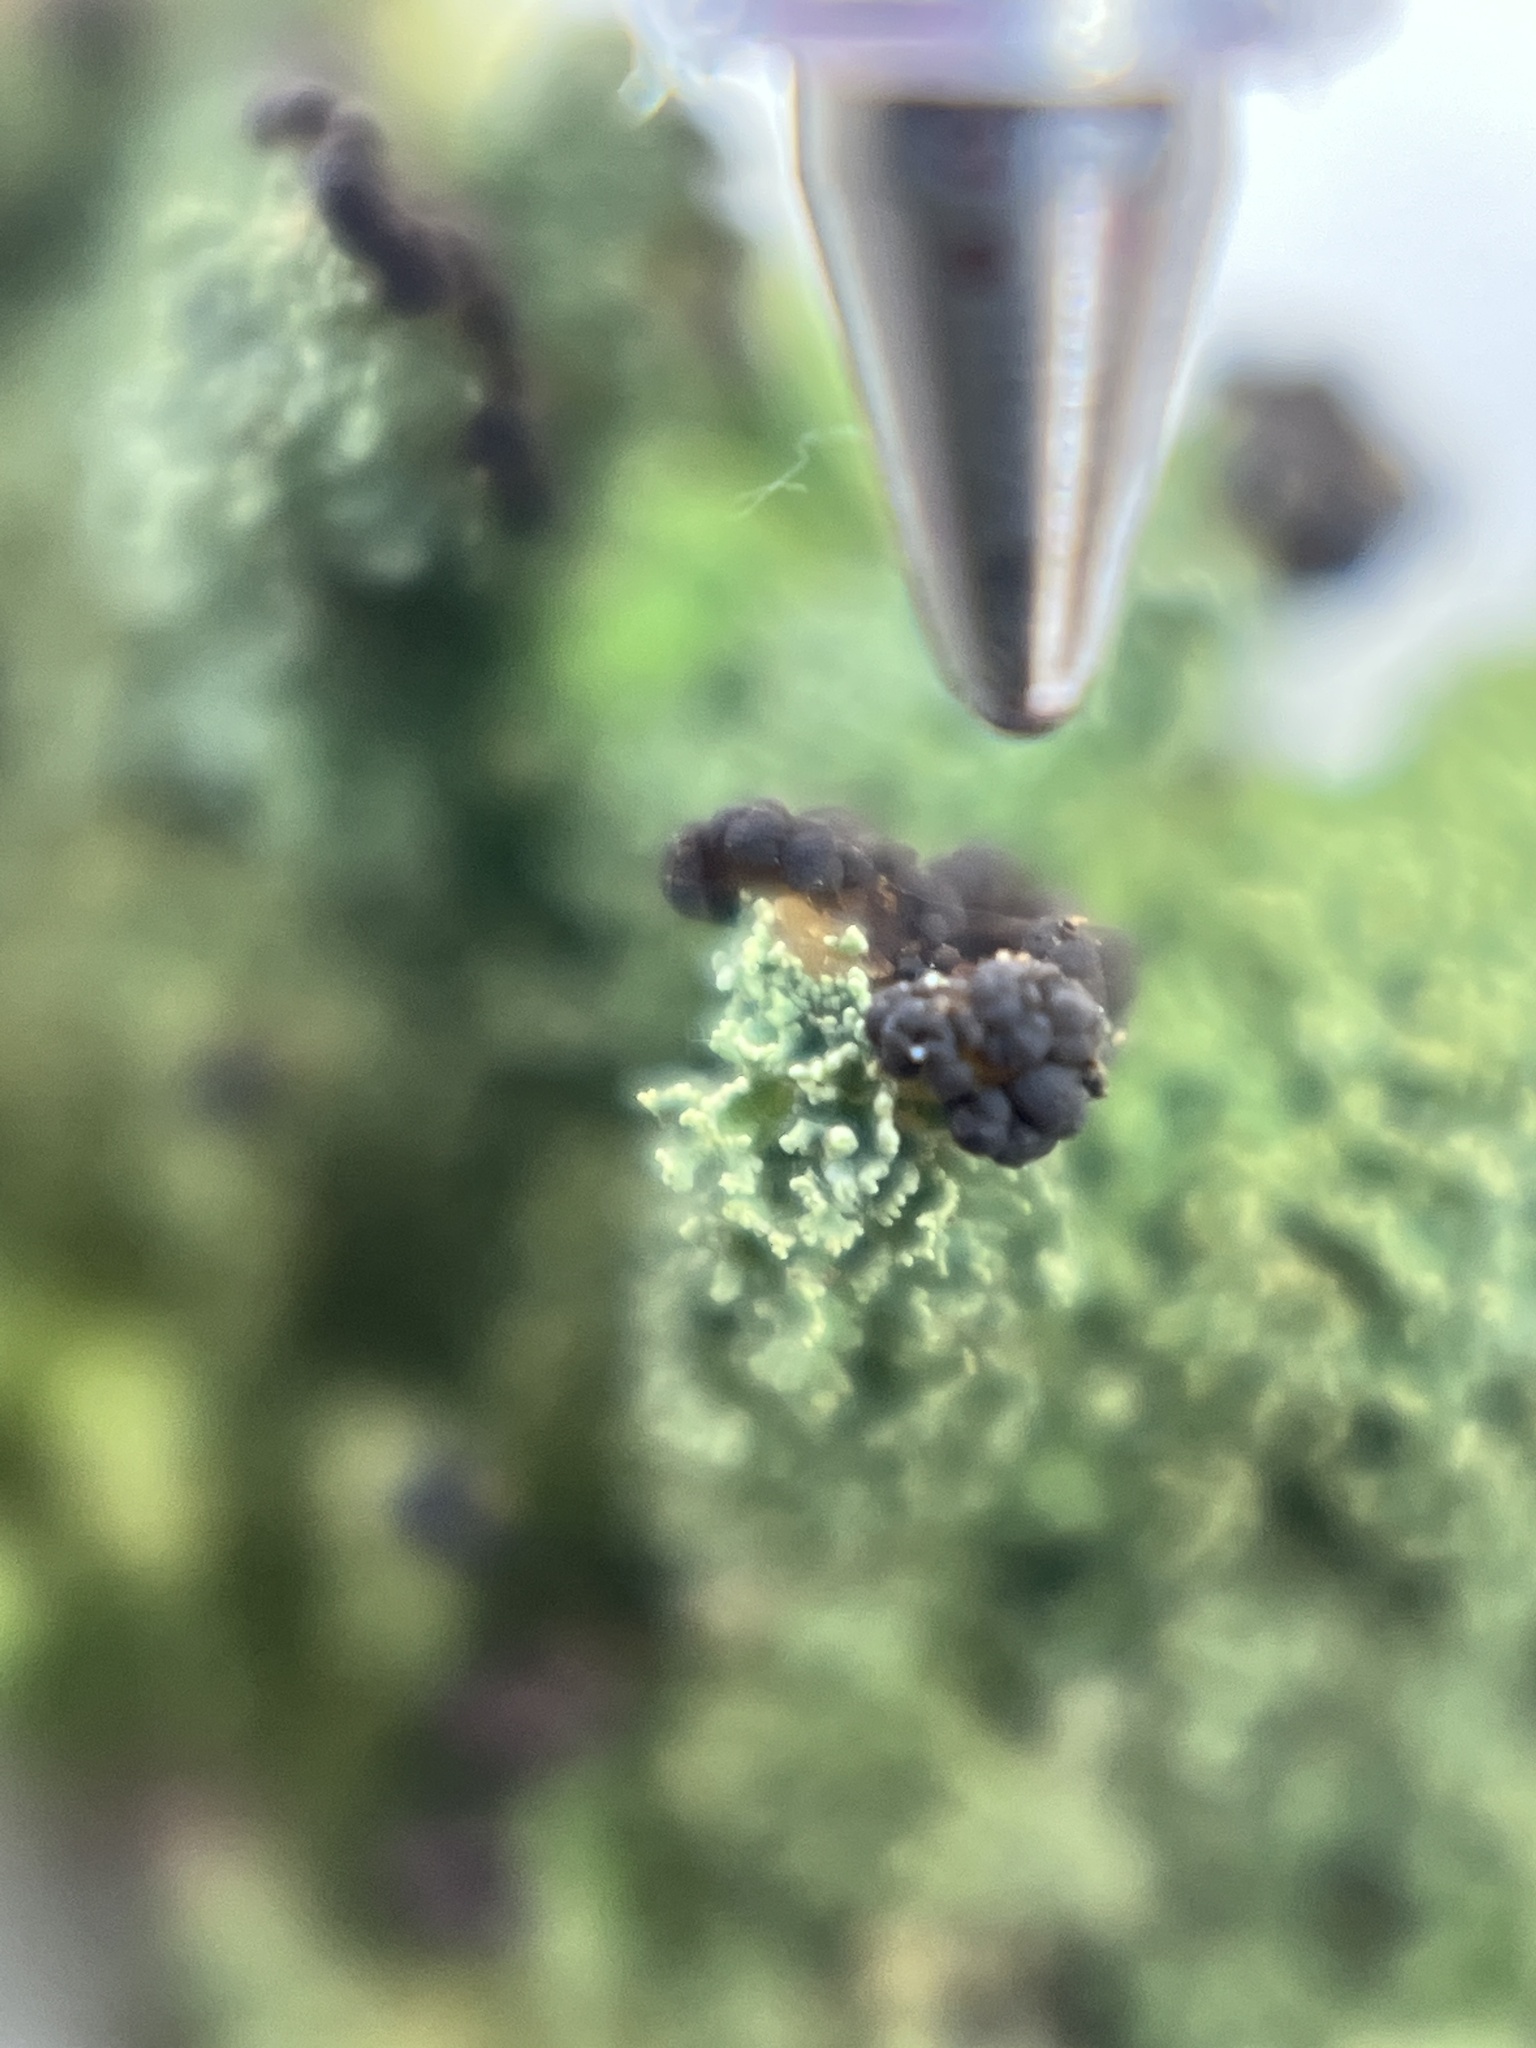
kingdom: Fungi
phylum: Ascomycota
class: Lecanoromycetes
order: Lecanorales
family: Cladoniaceae
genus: Cladonia
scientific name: Cladonia parasitica
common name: Fence-rail clad lichen
